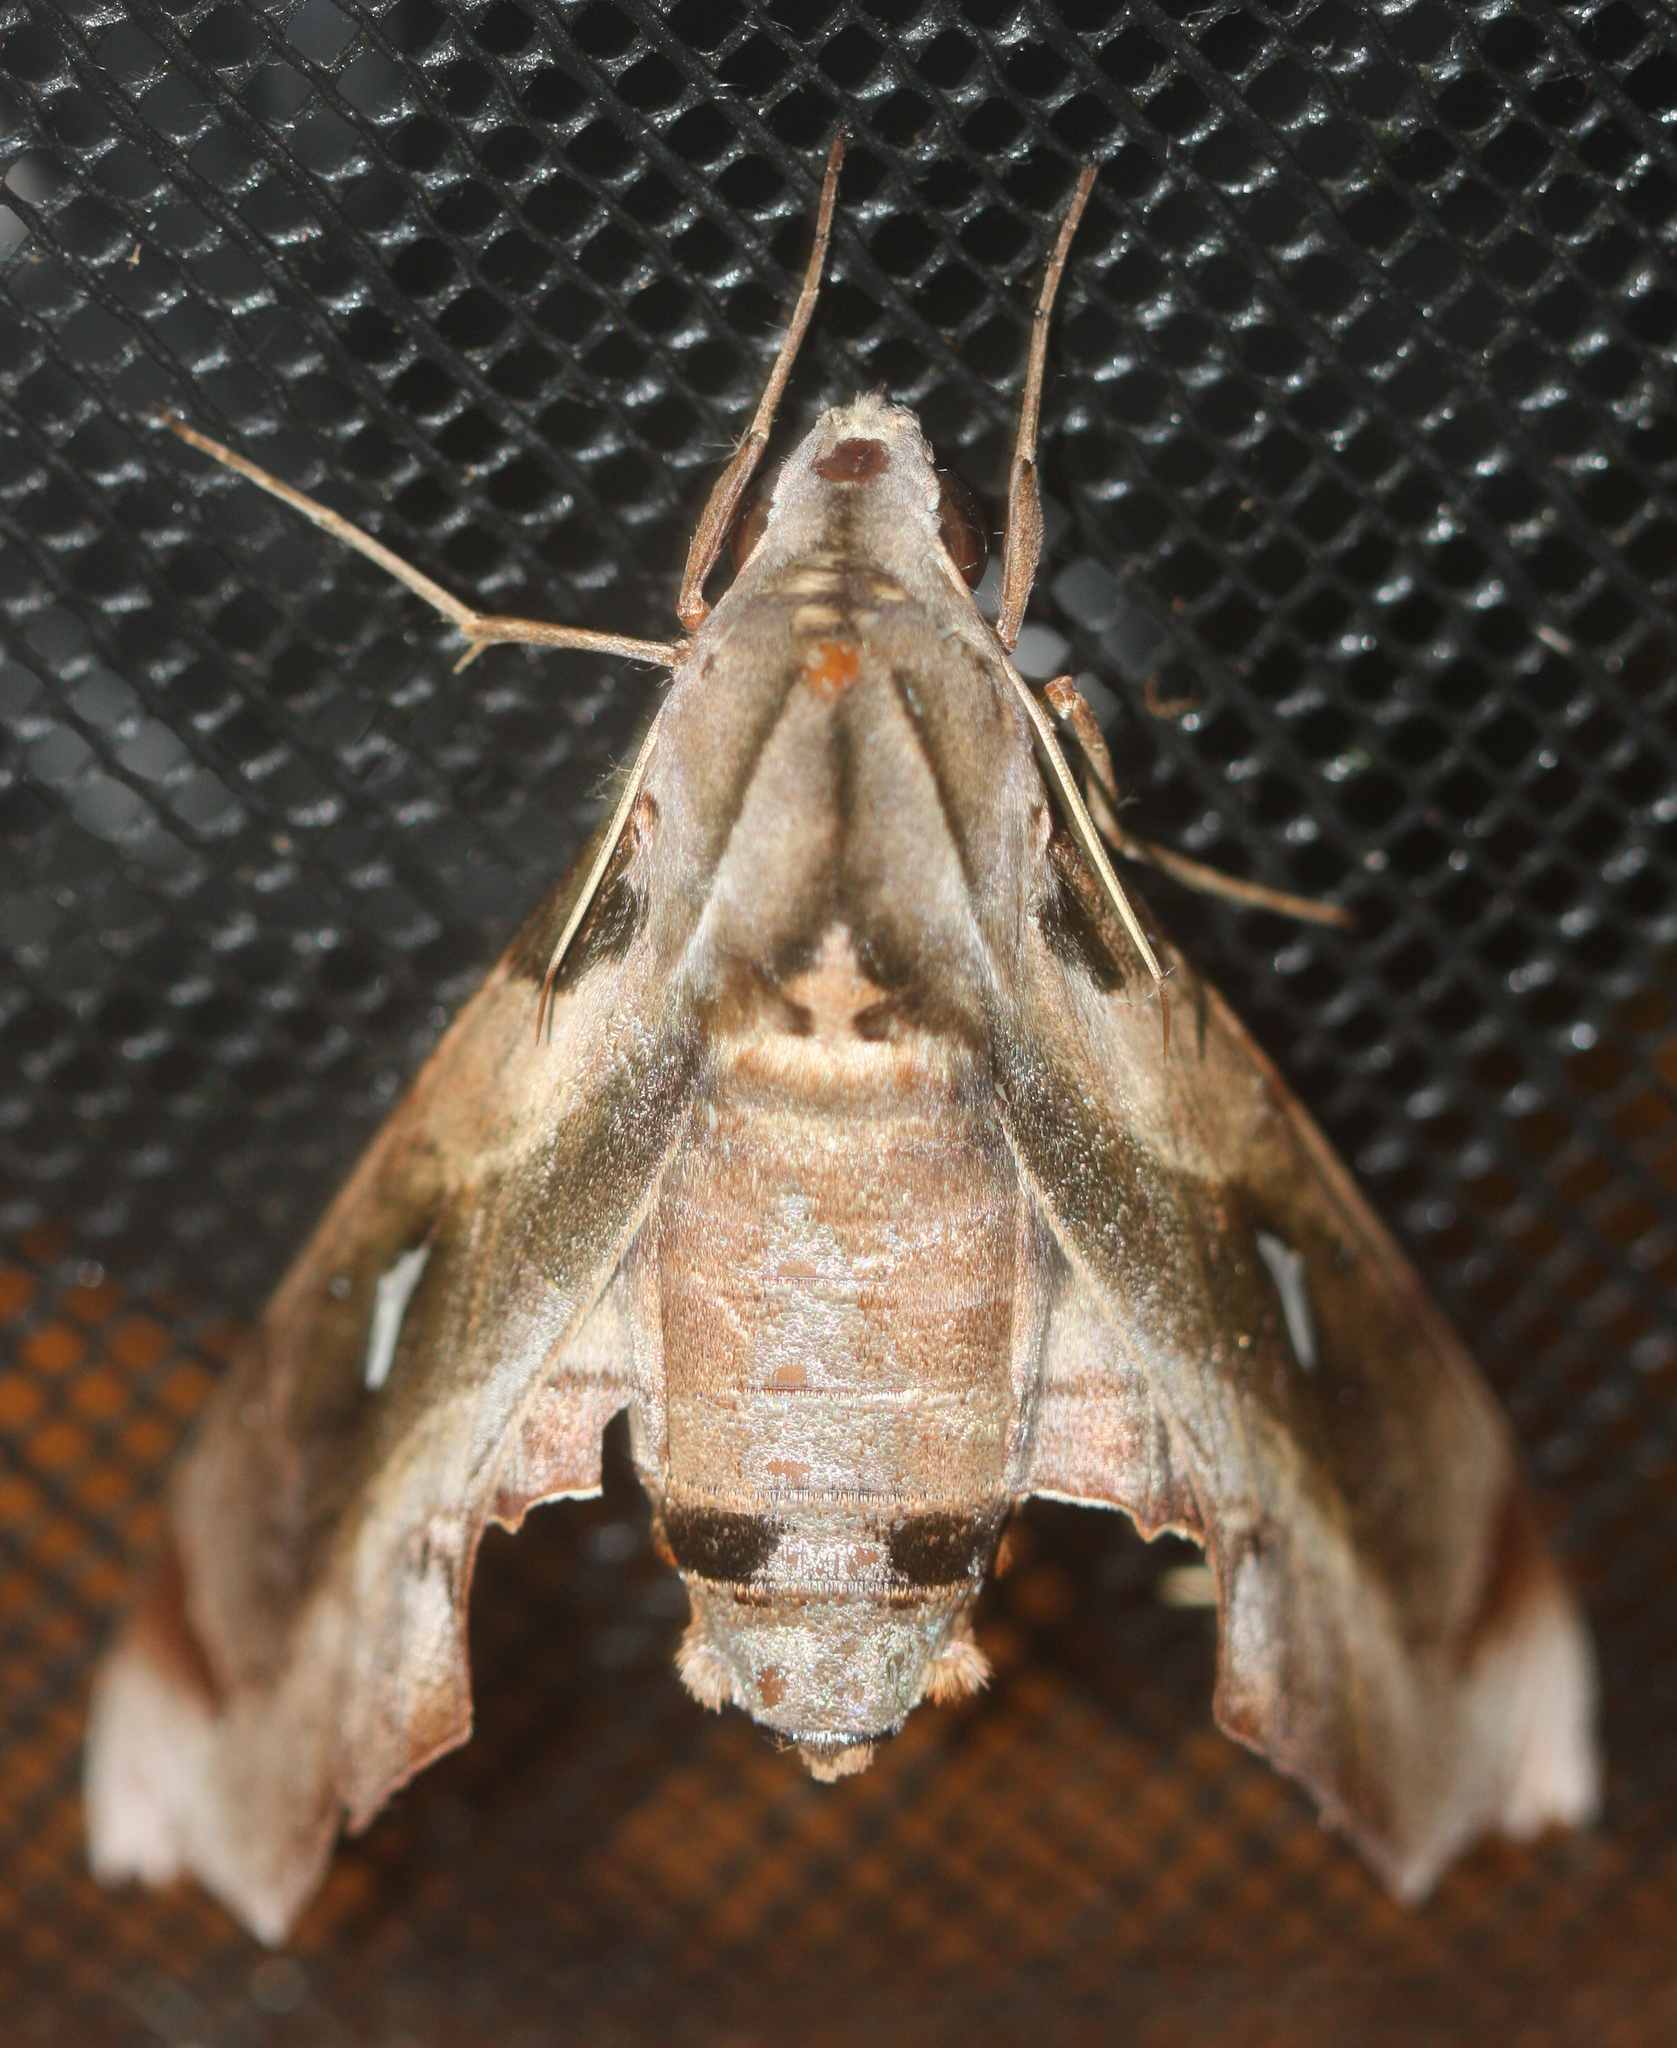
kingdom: Animalia
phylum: Arthropoda
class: Insecta
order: Lepidoptera
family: Sphingidae
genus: Madoryx
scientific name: Madoryx plutonius
